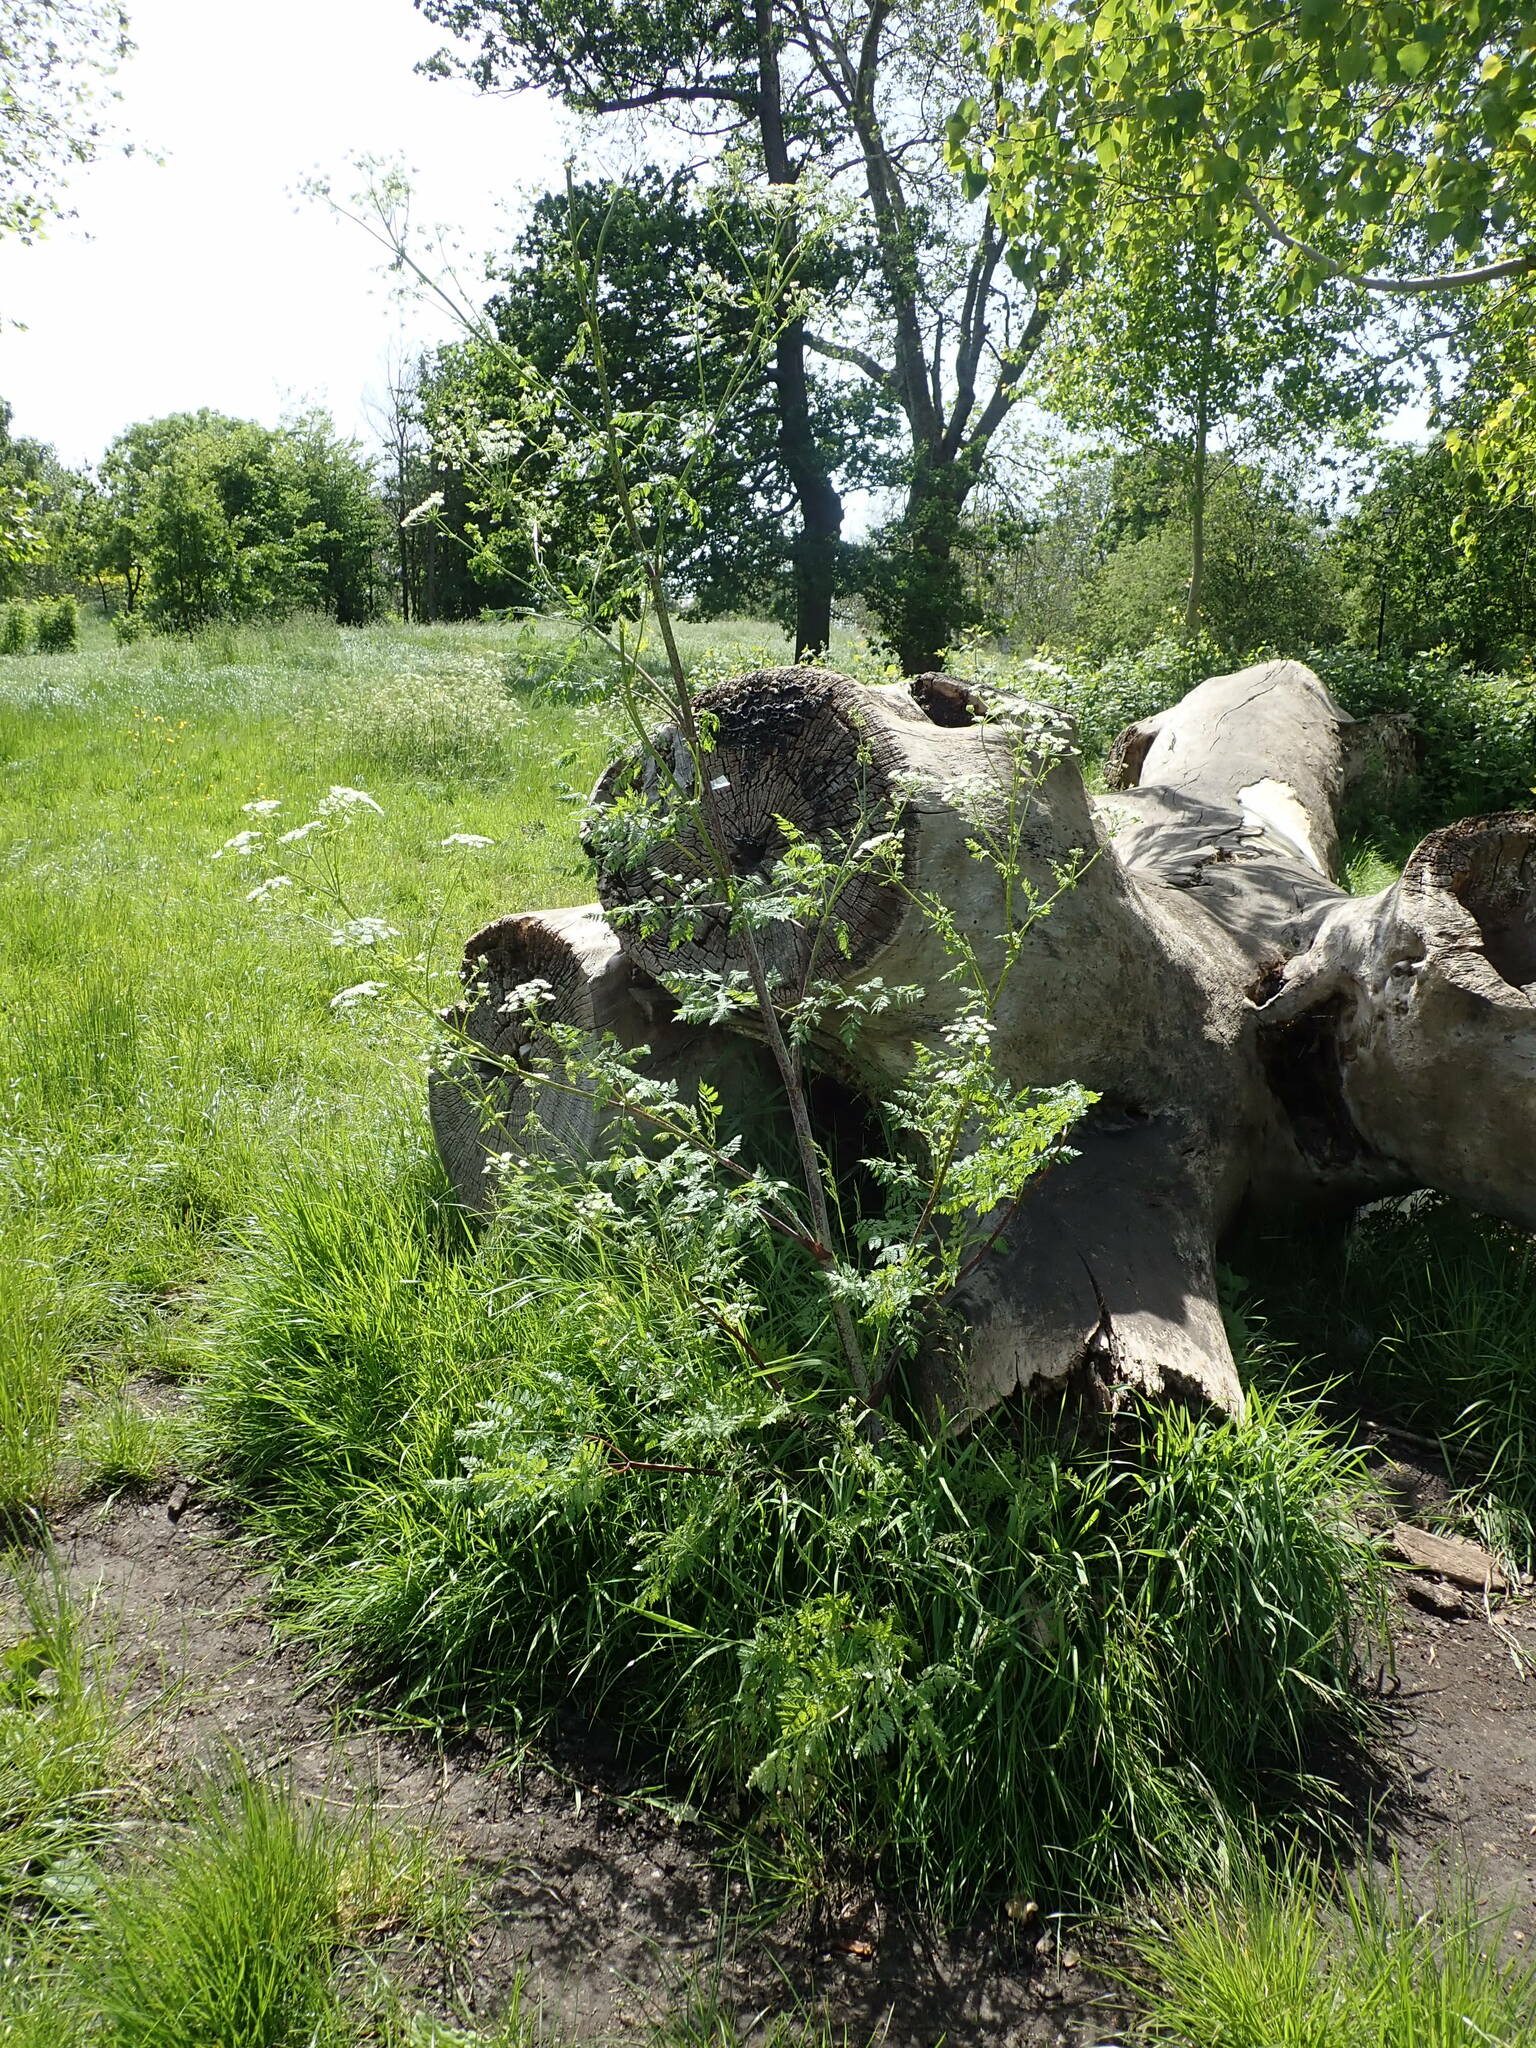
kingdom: Plantae
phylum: Tracheophyta
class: Magnoliopsida
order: Apiales
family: Apiaceae
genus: Conium
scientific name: Conium maculatum
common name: Hemlock
